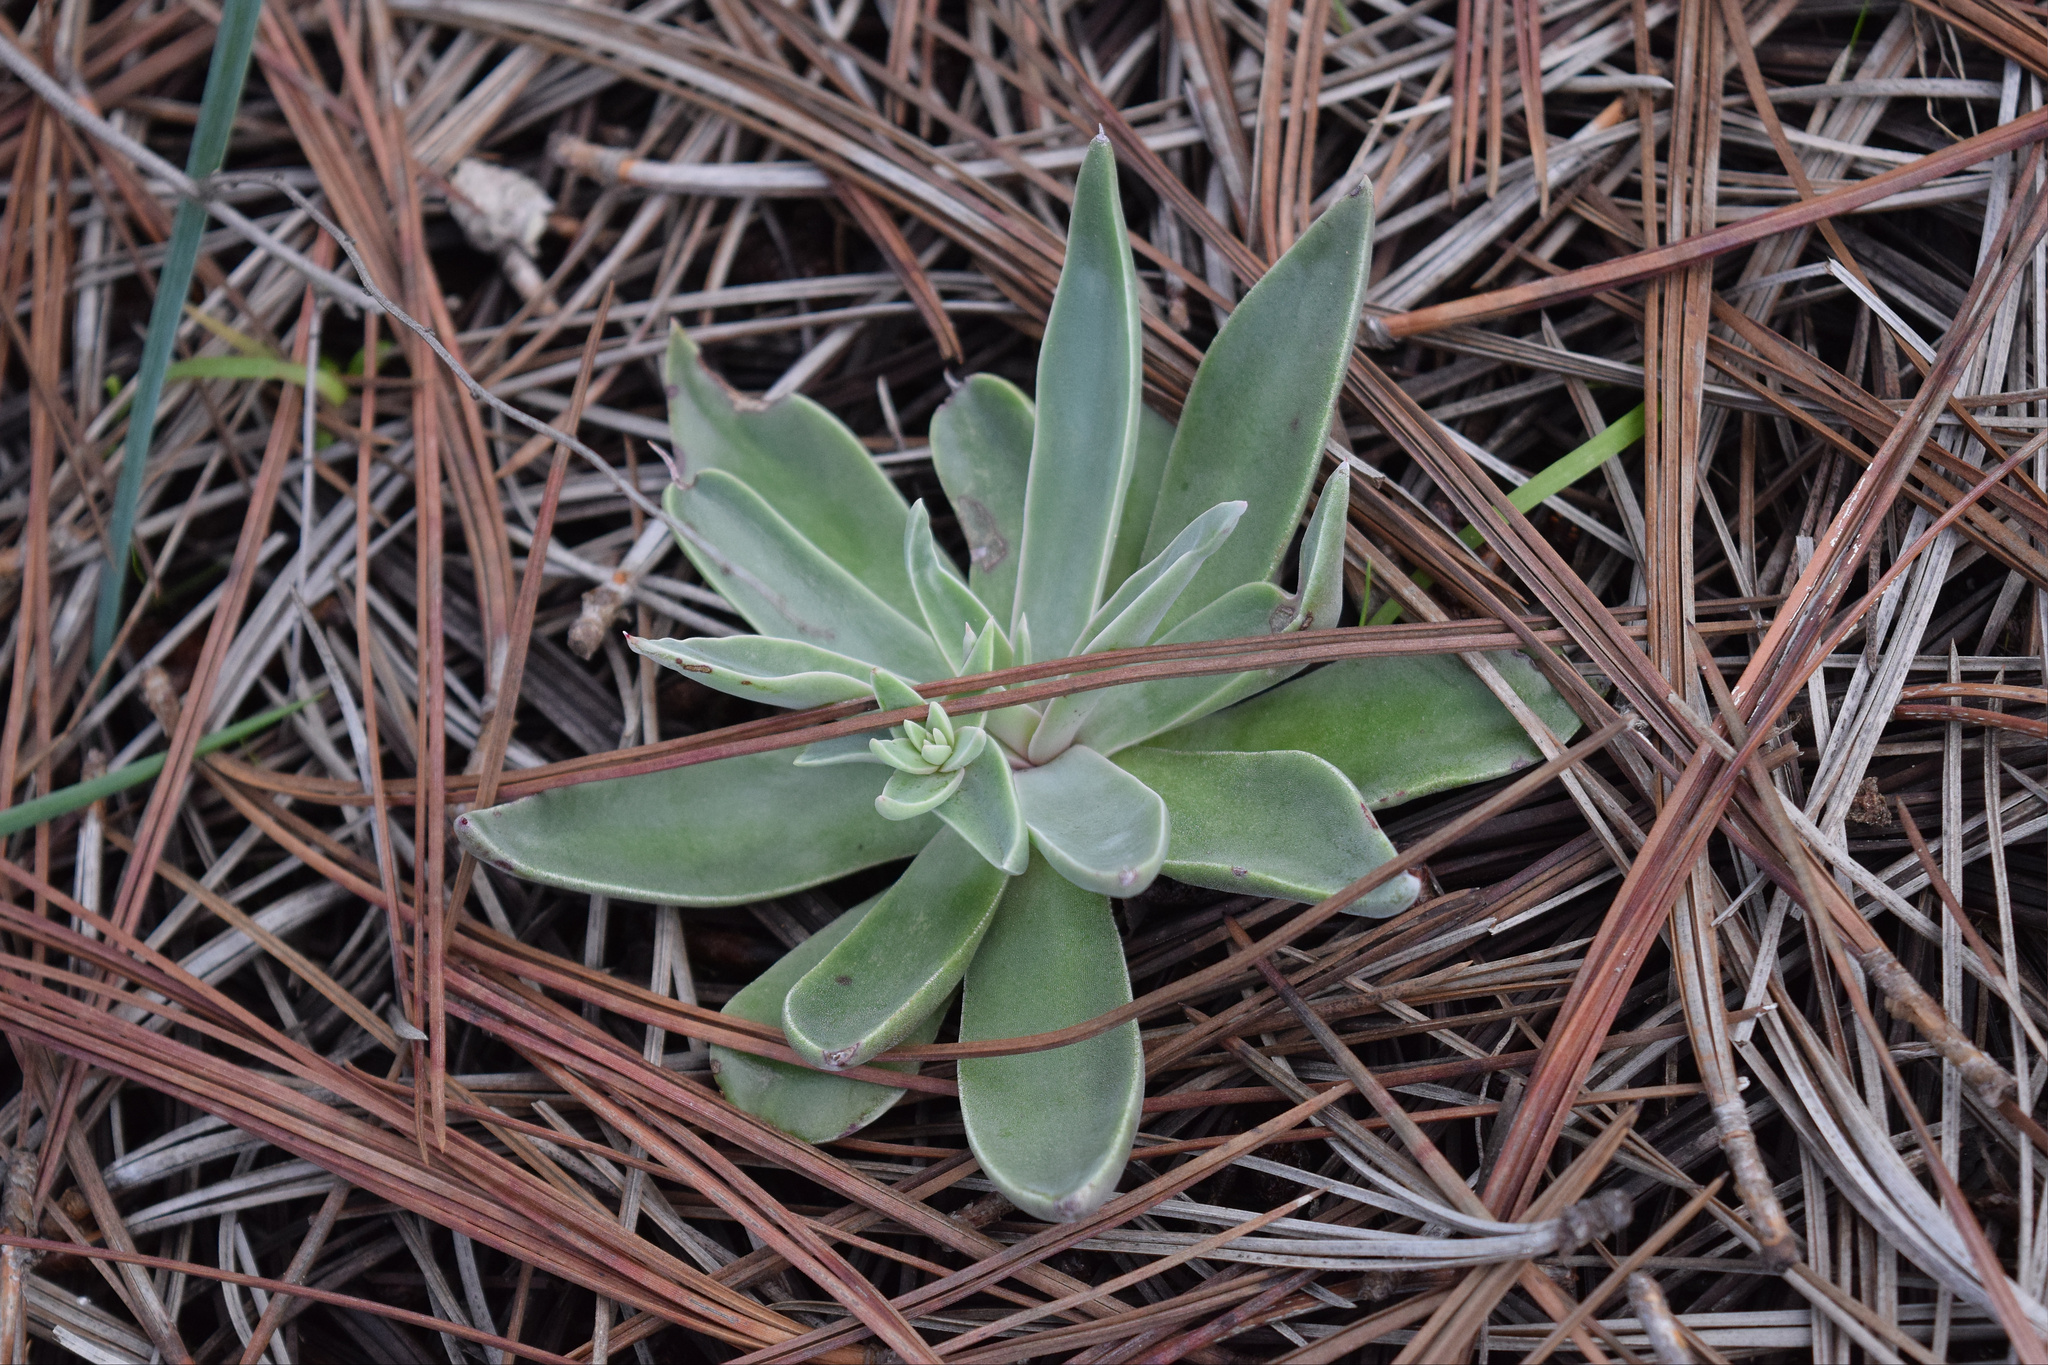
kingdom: Plantae
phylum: Tracheophyta
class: Magnoliopsida
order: Saxifragales
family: Crassulaceae
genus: Dudleya
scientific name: Dudleya lanceolata
